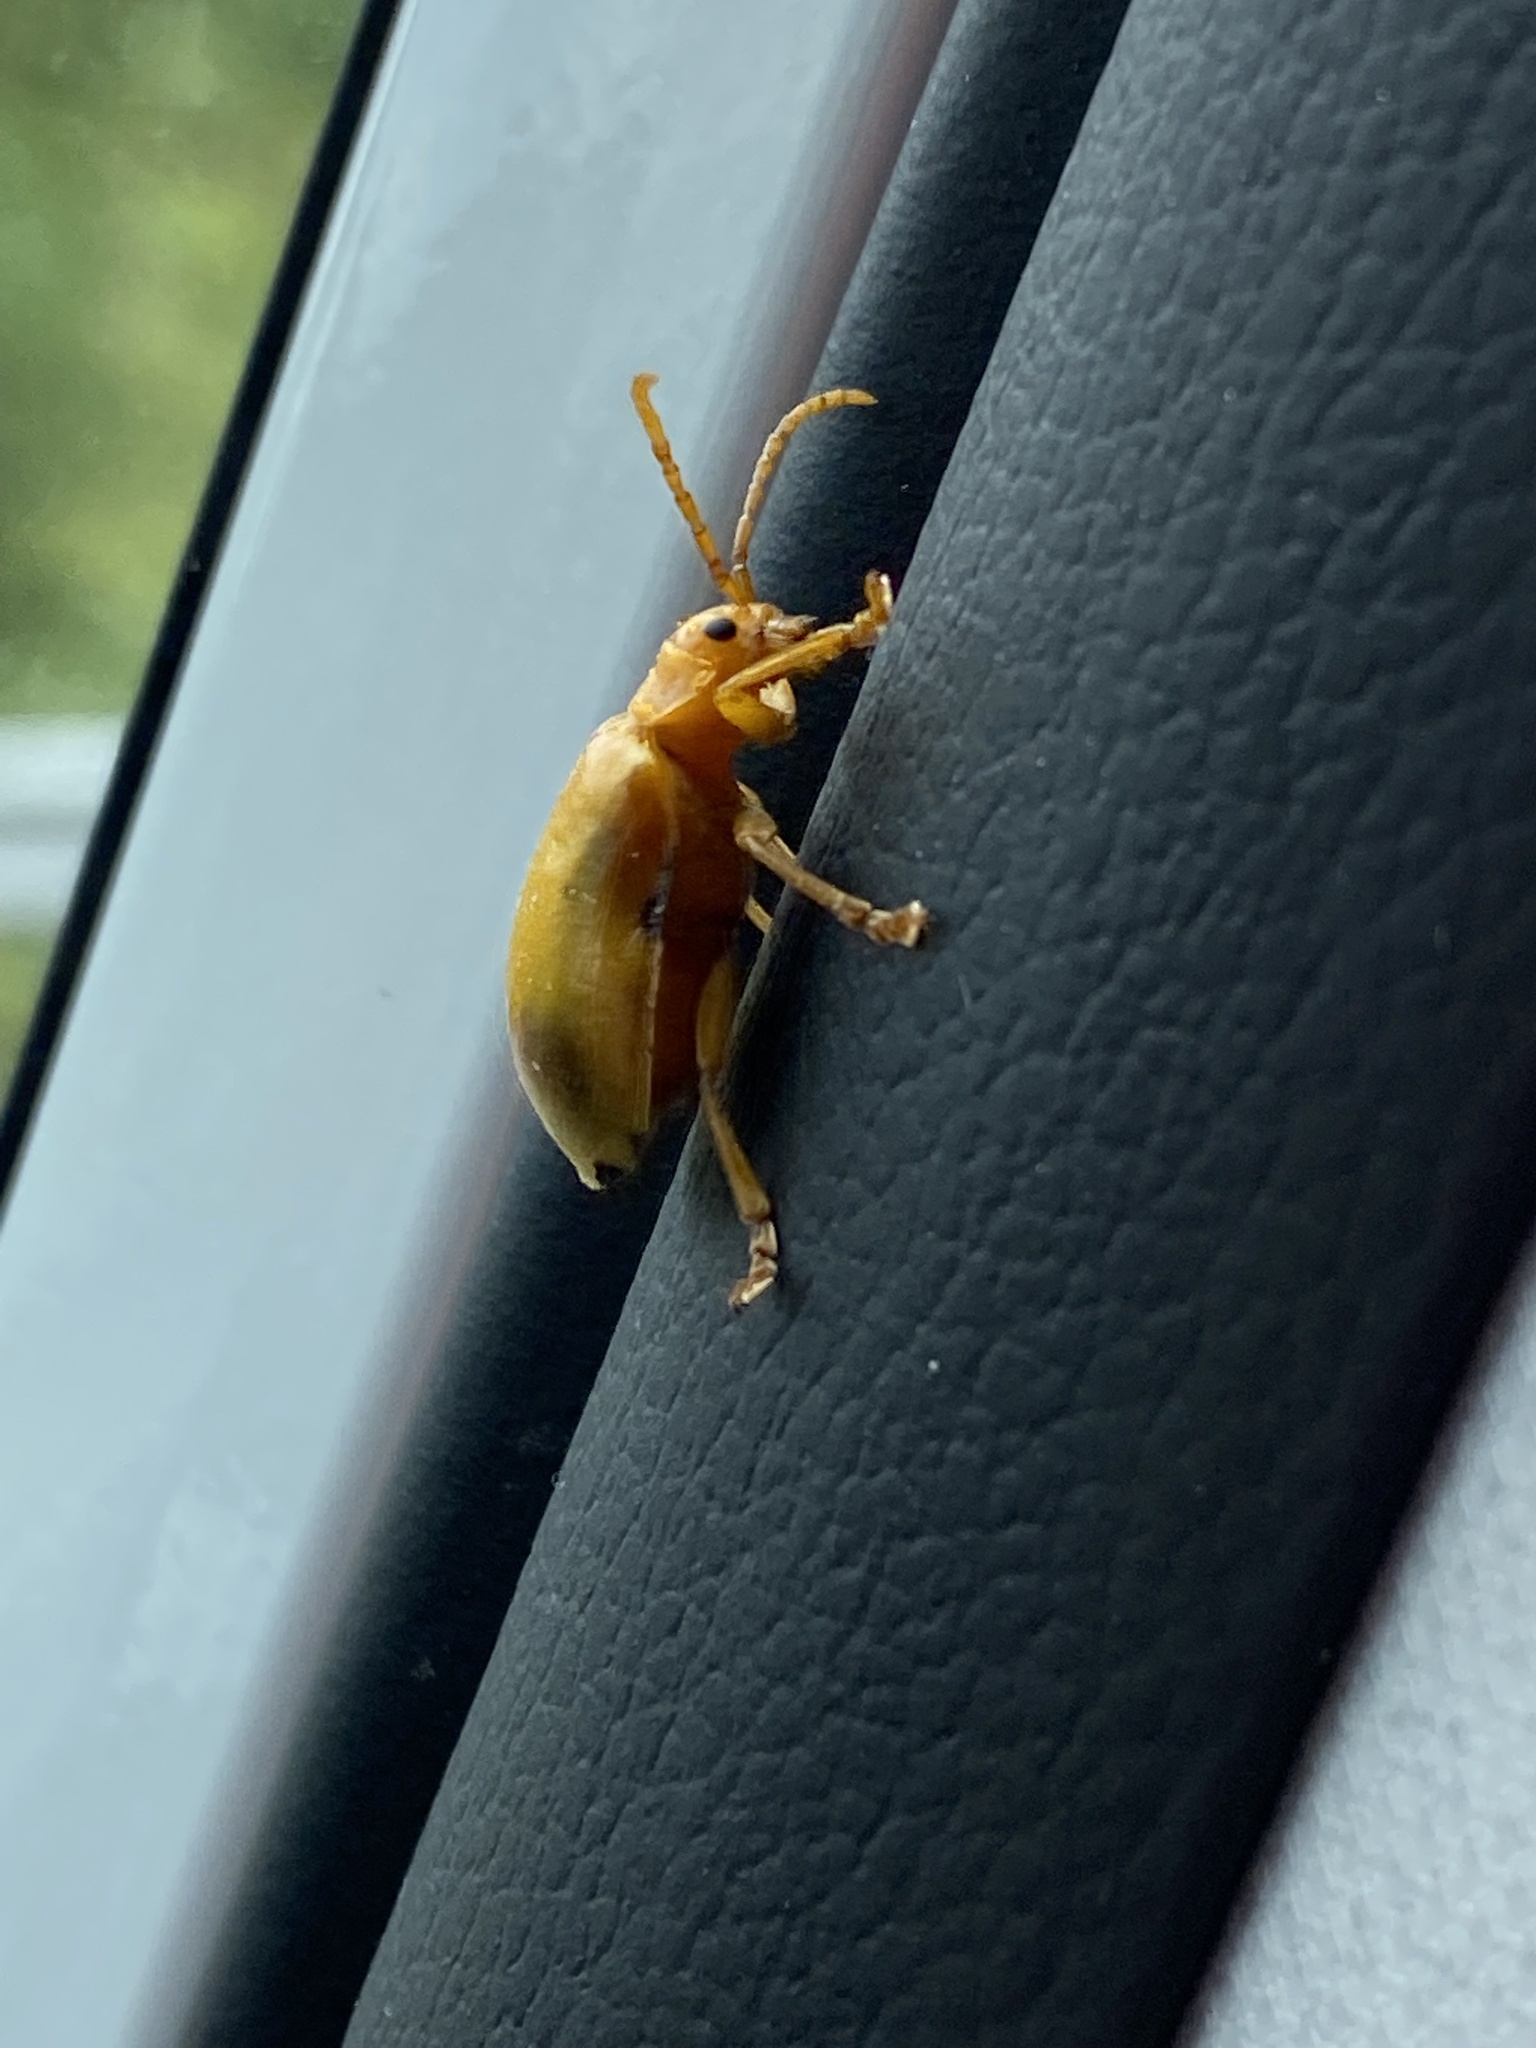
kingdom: Animalia
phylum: Arthropoda
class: Insecta
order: Coleoptera
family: Chrysomelidae
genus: Monocesta
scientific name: Monocesta coryli
